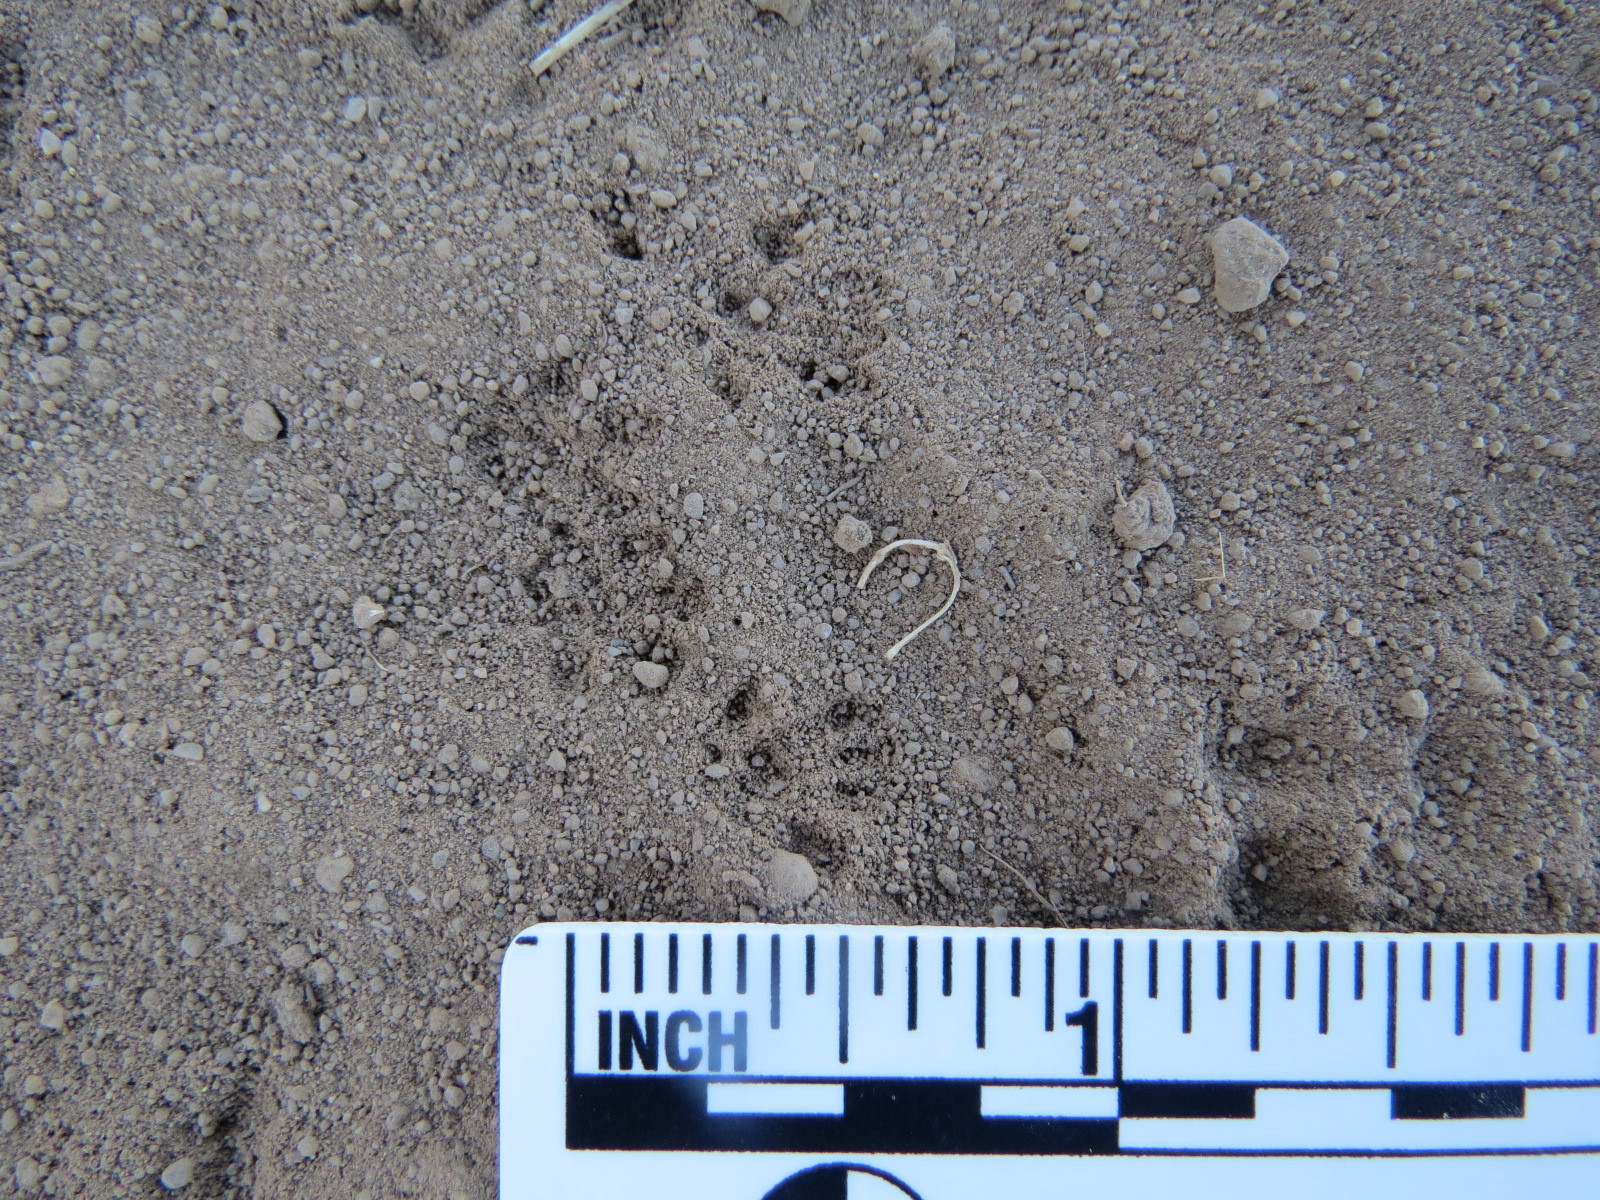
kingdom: Animalia
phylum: Chordata
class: Mammalia
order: Rodentia
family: Cricetidae
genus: Reithrodontomys
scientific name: Reithrodontomys megalotis
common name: Western harvest mouse
